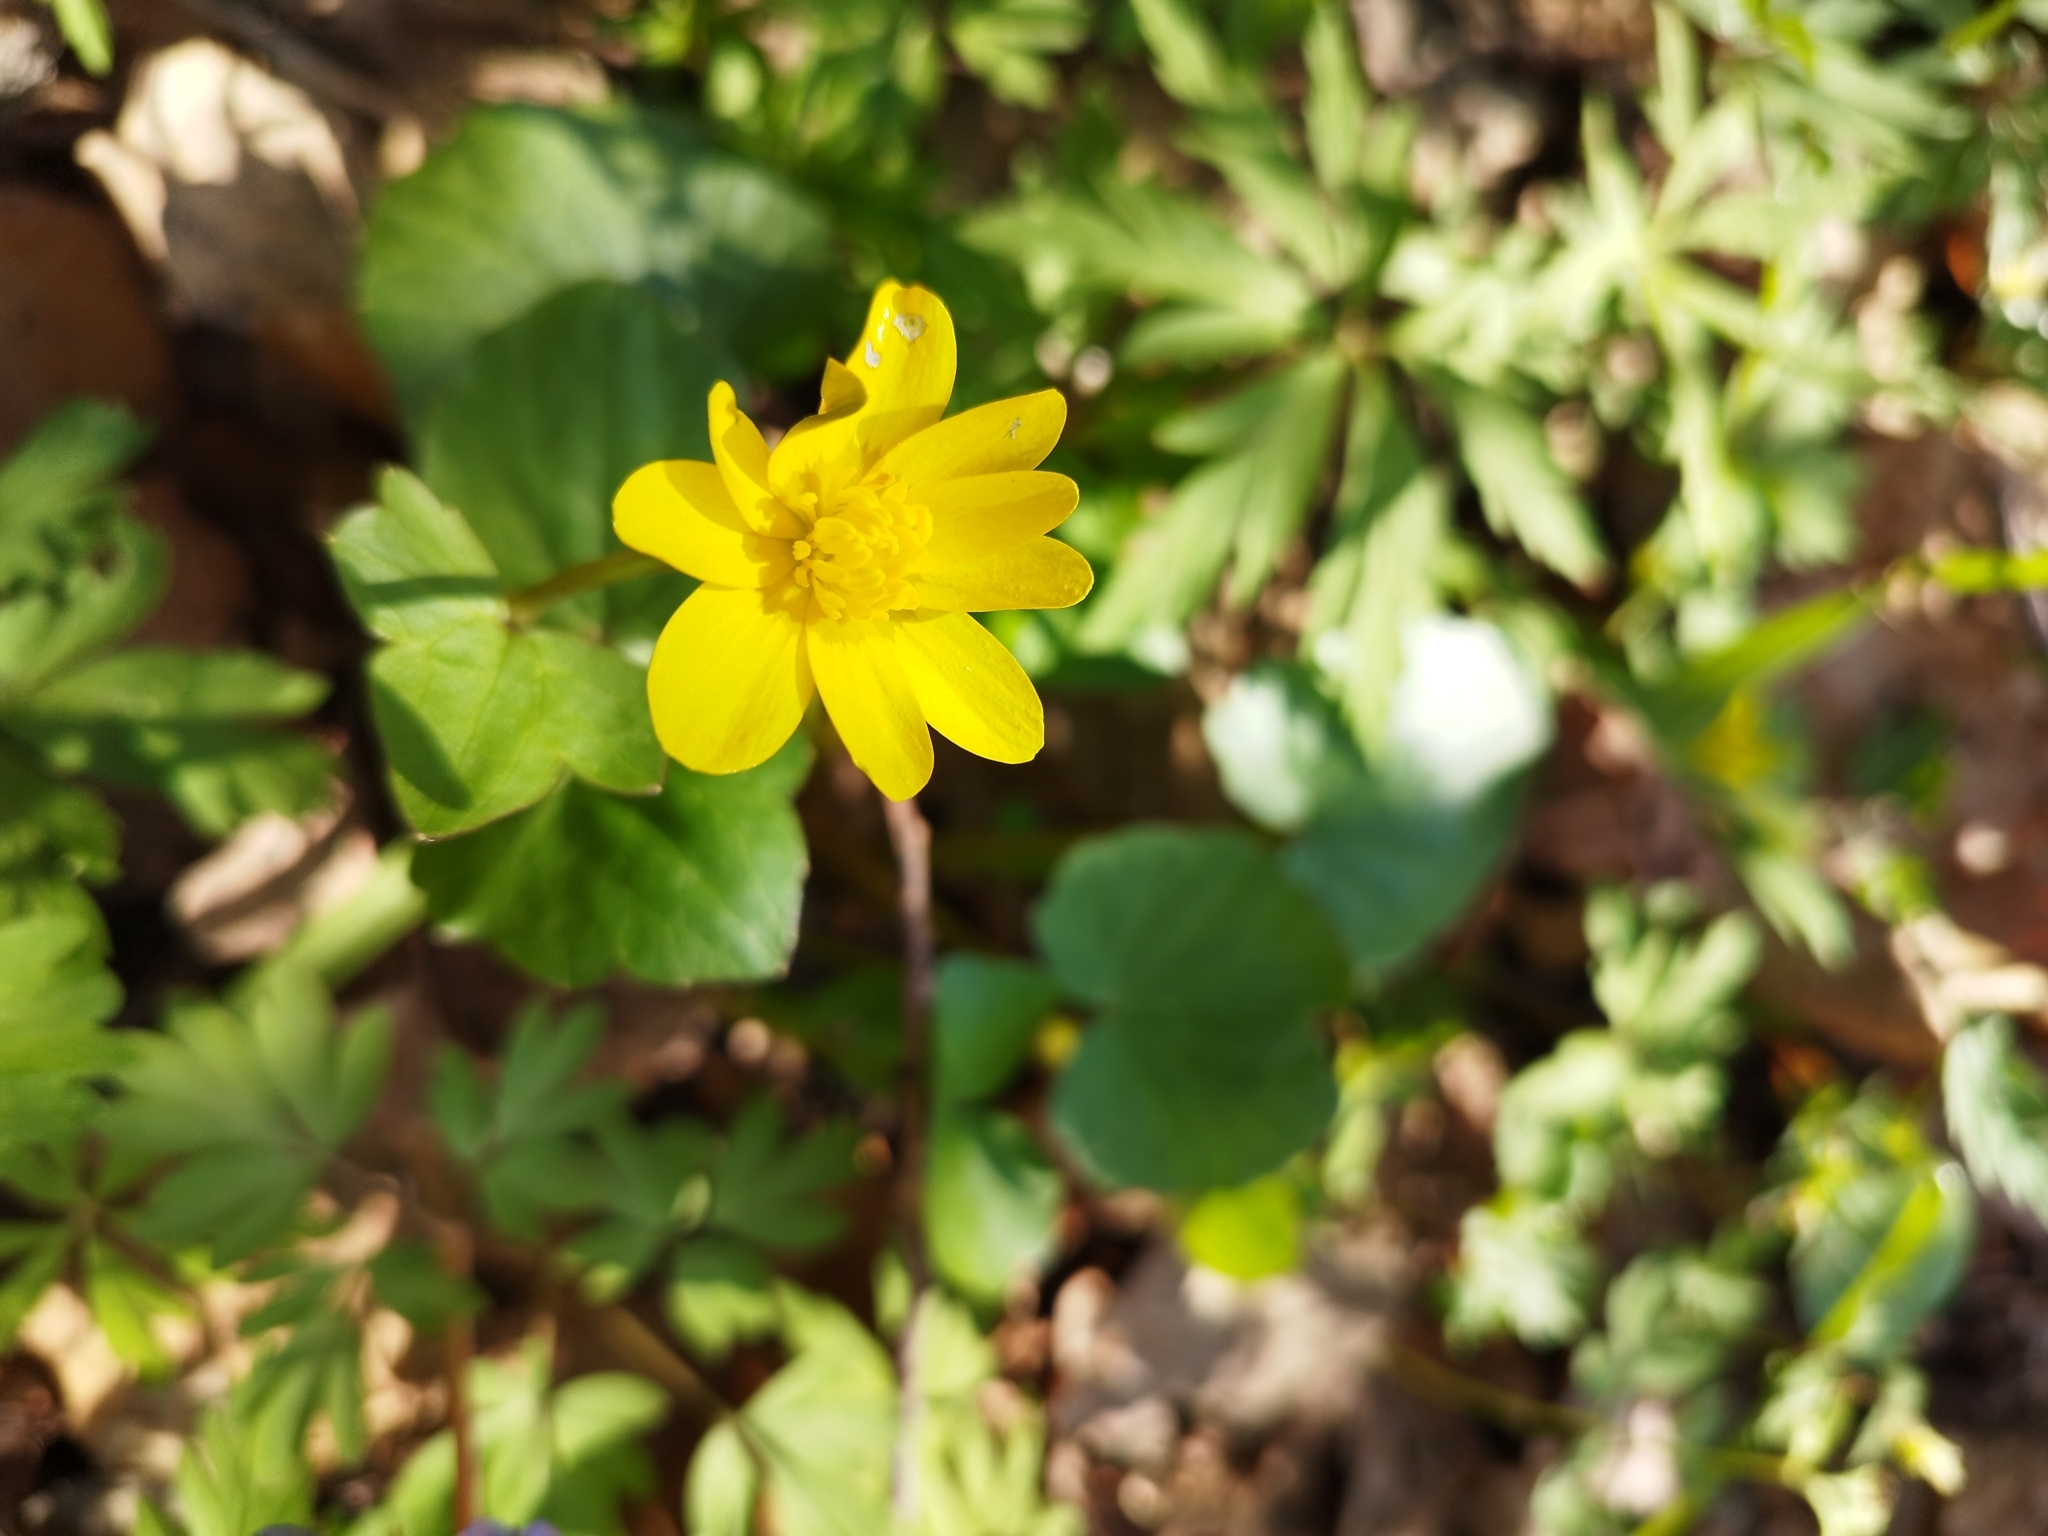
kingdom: Plantae
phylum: Tracheophyta
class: Magnoliopsida
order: Ranunculales
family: Ranunculaceae
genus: Ficaria
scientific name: Ficaria verna
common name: Lesser celandine
